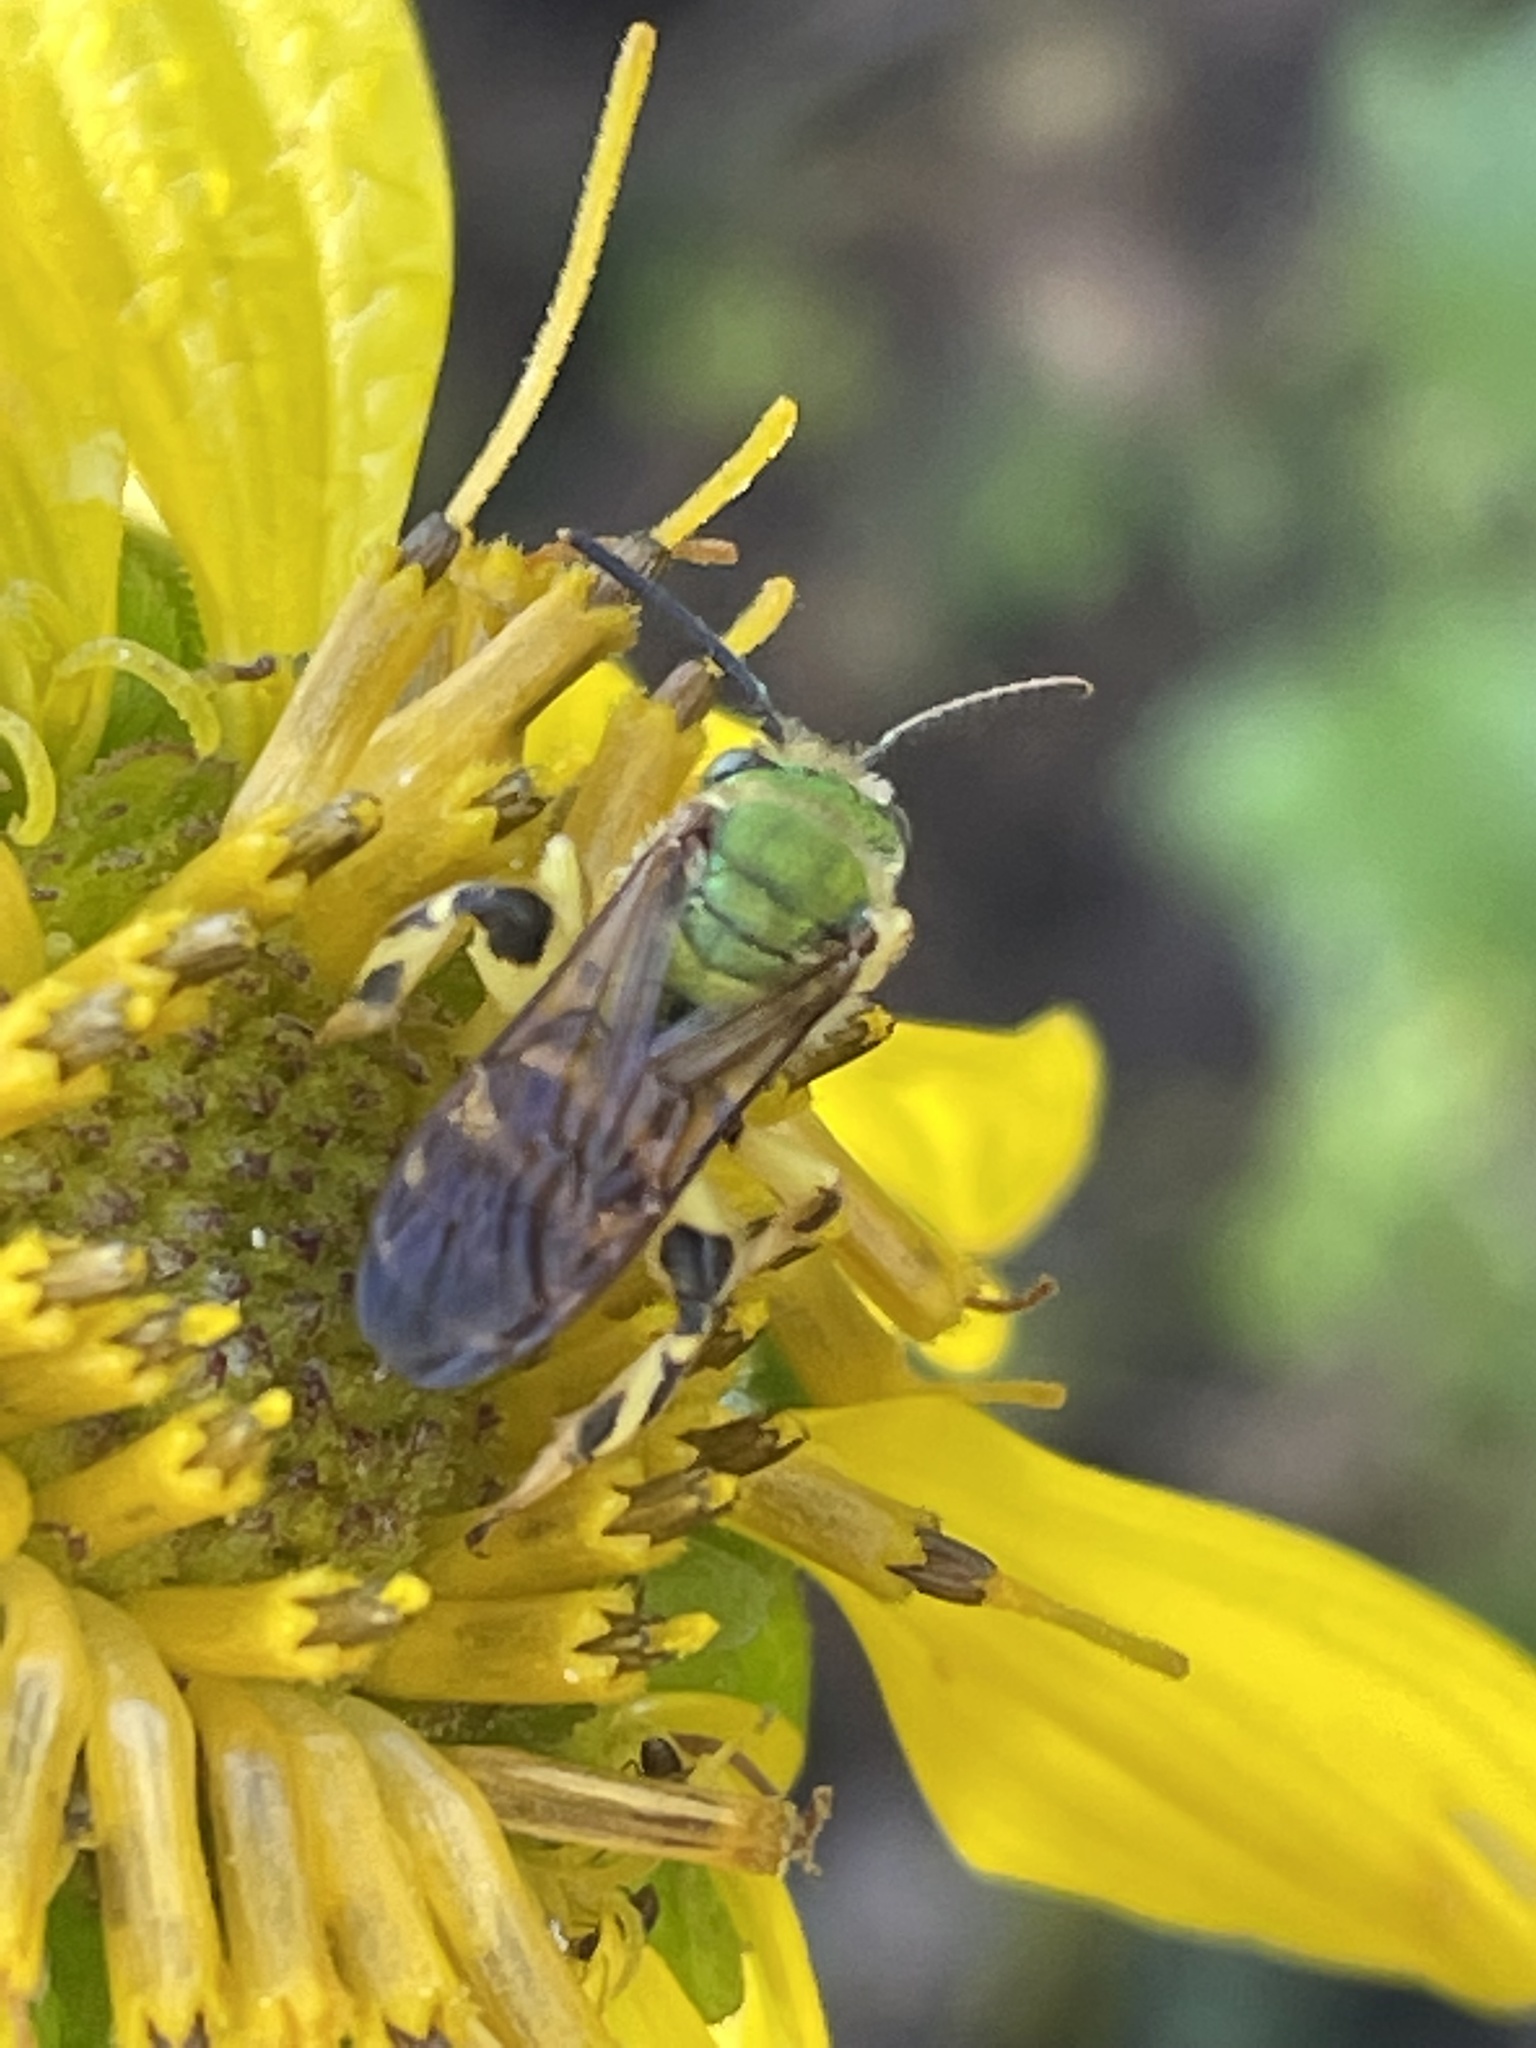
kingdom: Animalia
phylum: Arthropoda
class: Insecta
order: Hymenoptera
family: Halictidae
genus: Agapostemon
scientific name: Agapostemon splendens
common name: Brown-winged striped sweat bee
